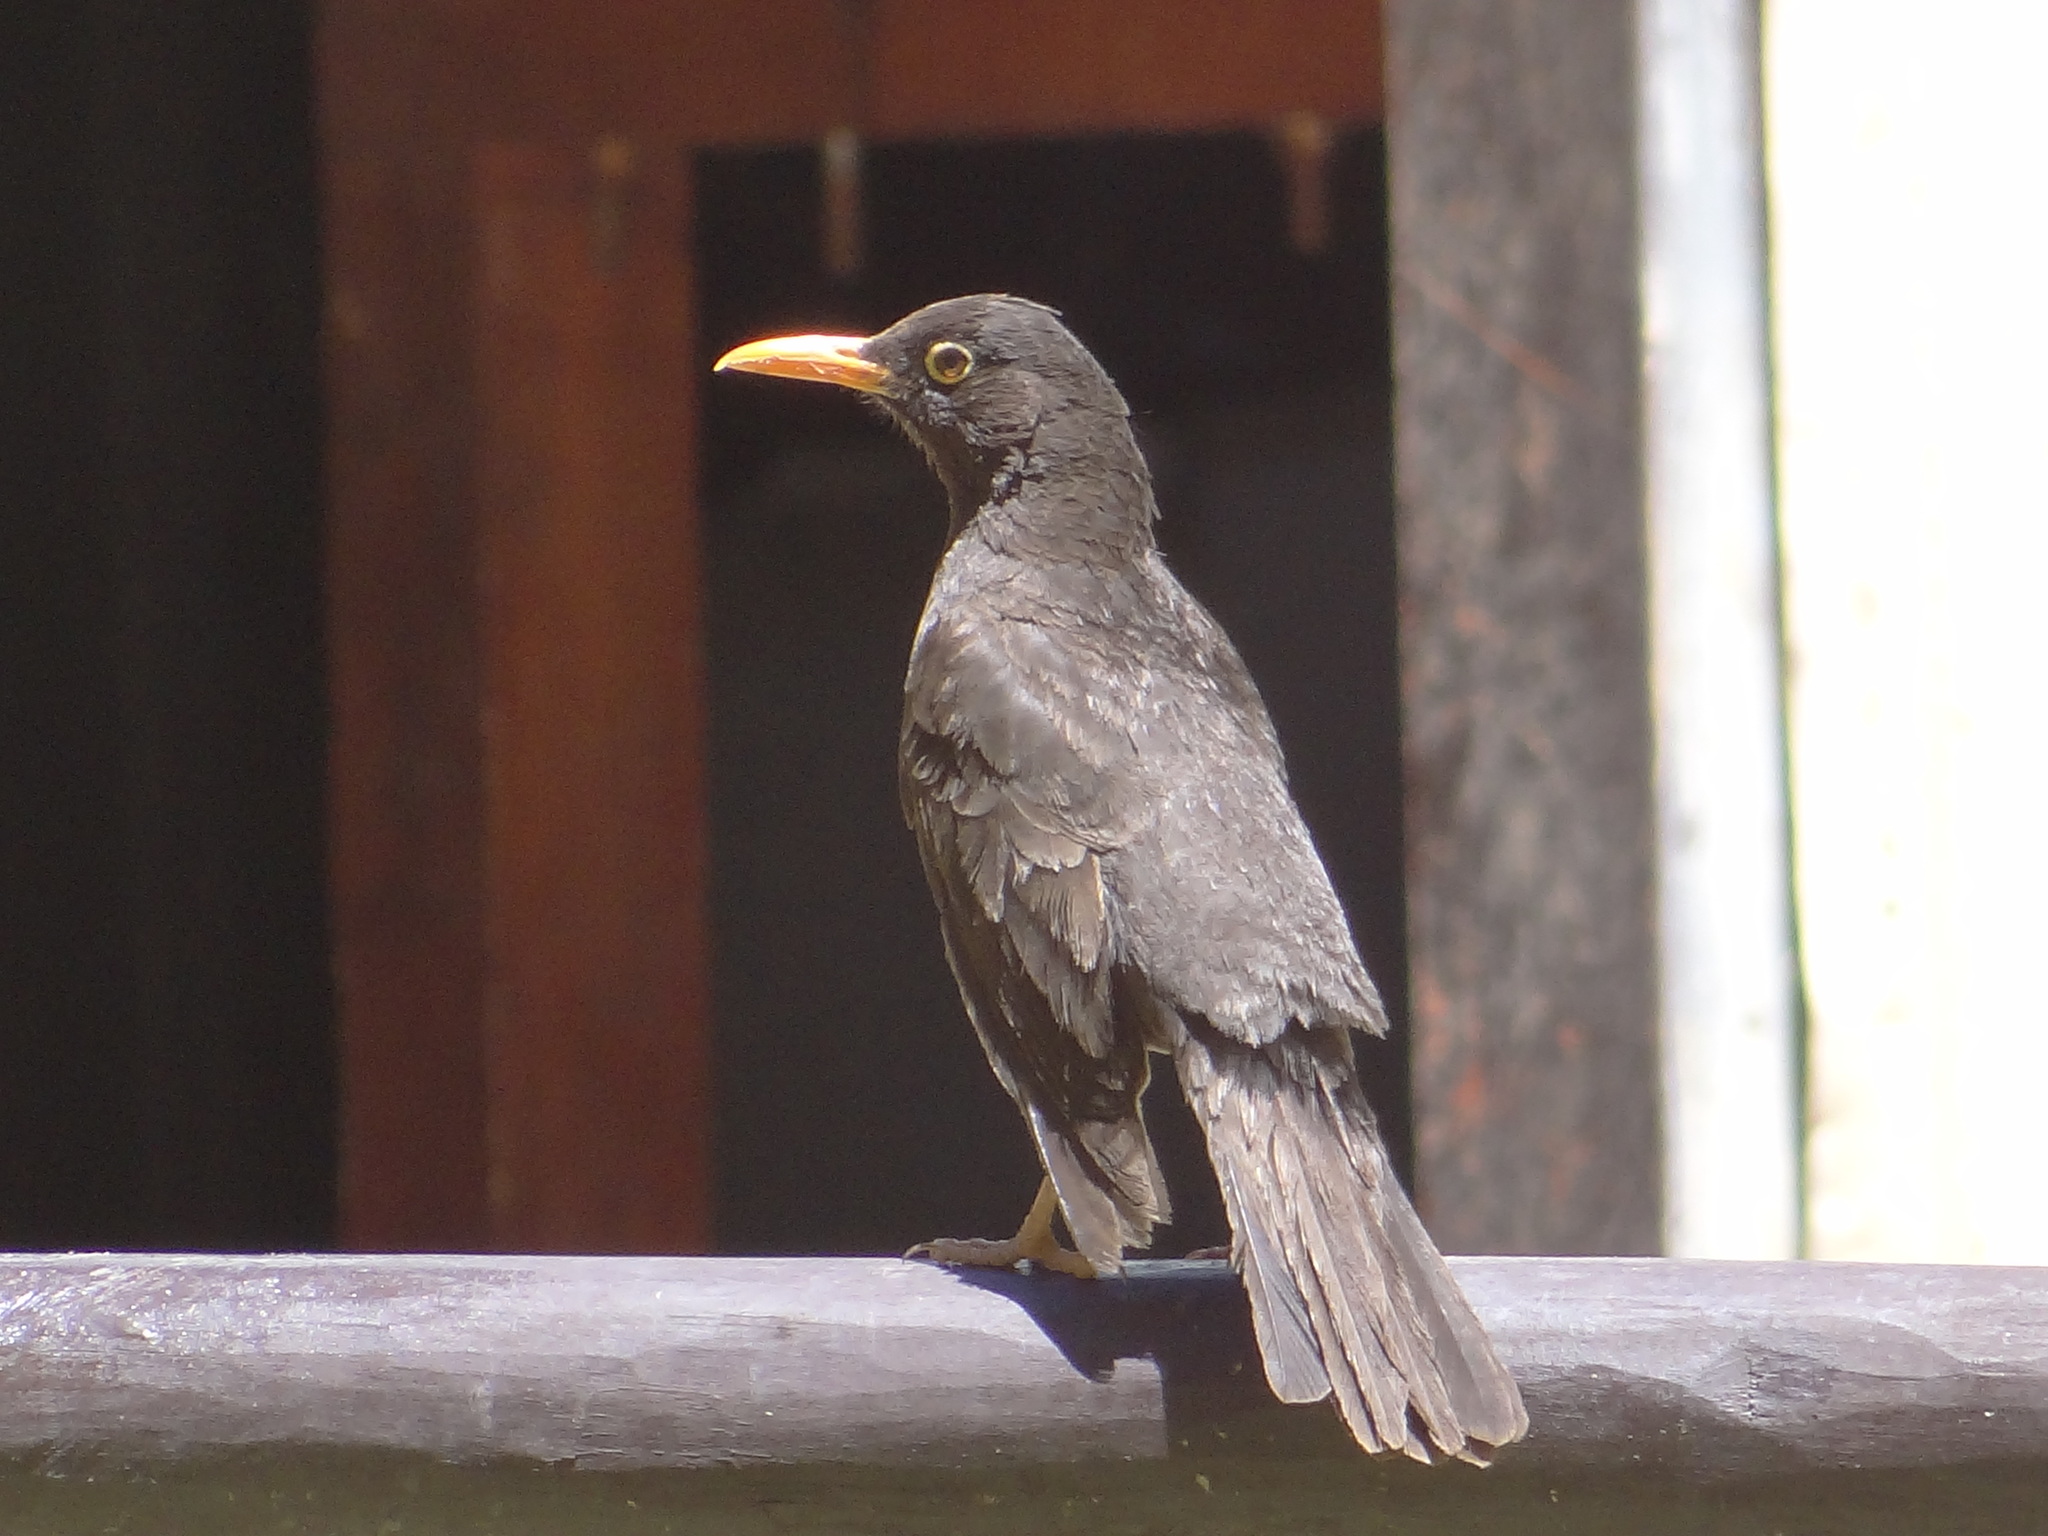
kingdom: Animalia
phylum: Chordata
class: Aves
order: Passeriformes
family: Turdidae
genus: Turdus
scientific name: Turdus chiguanco
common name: Chiguanco thrush
